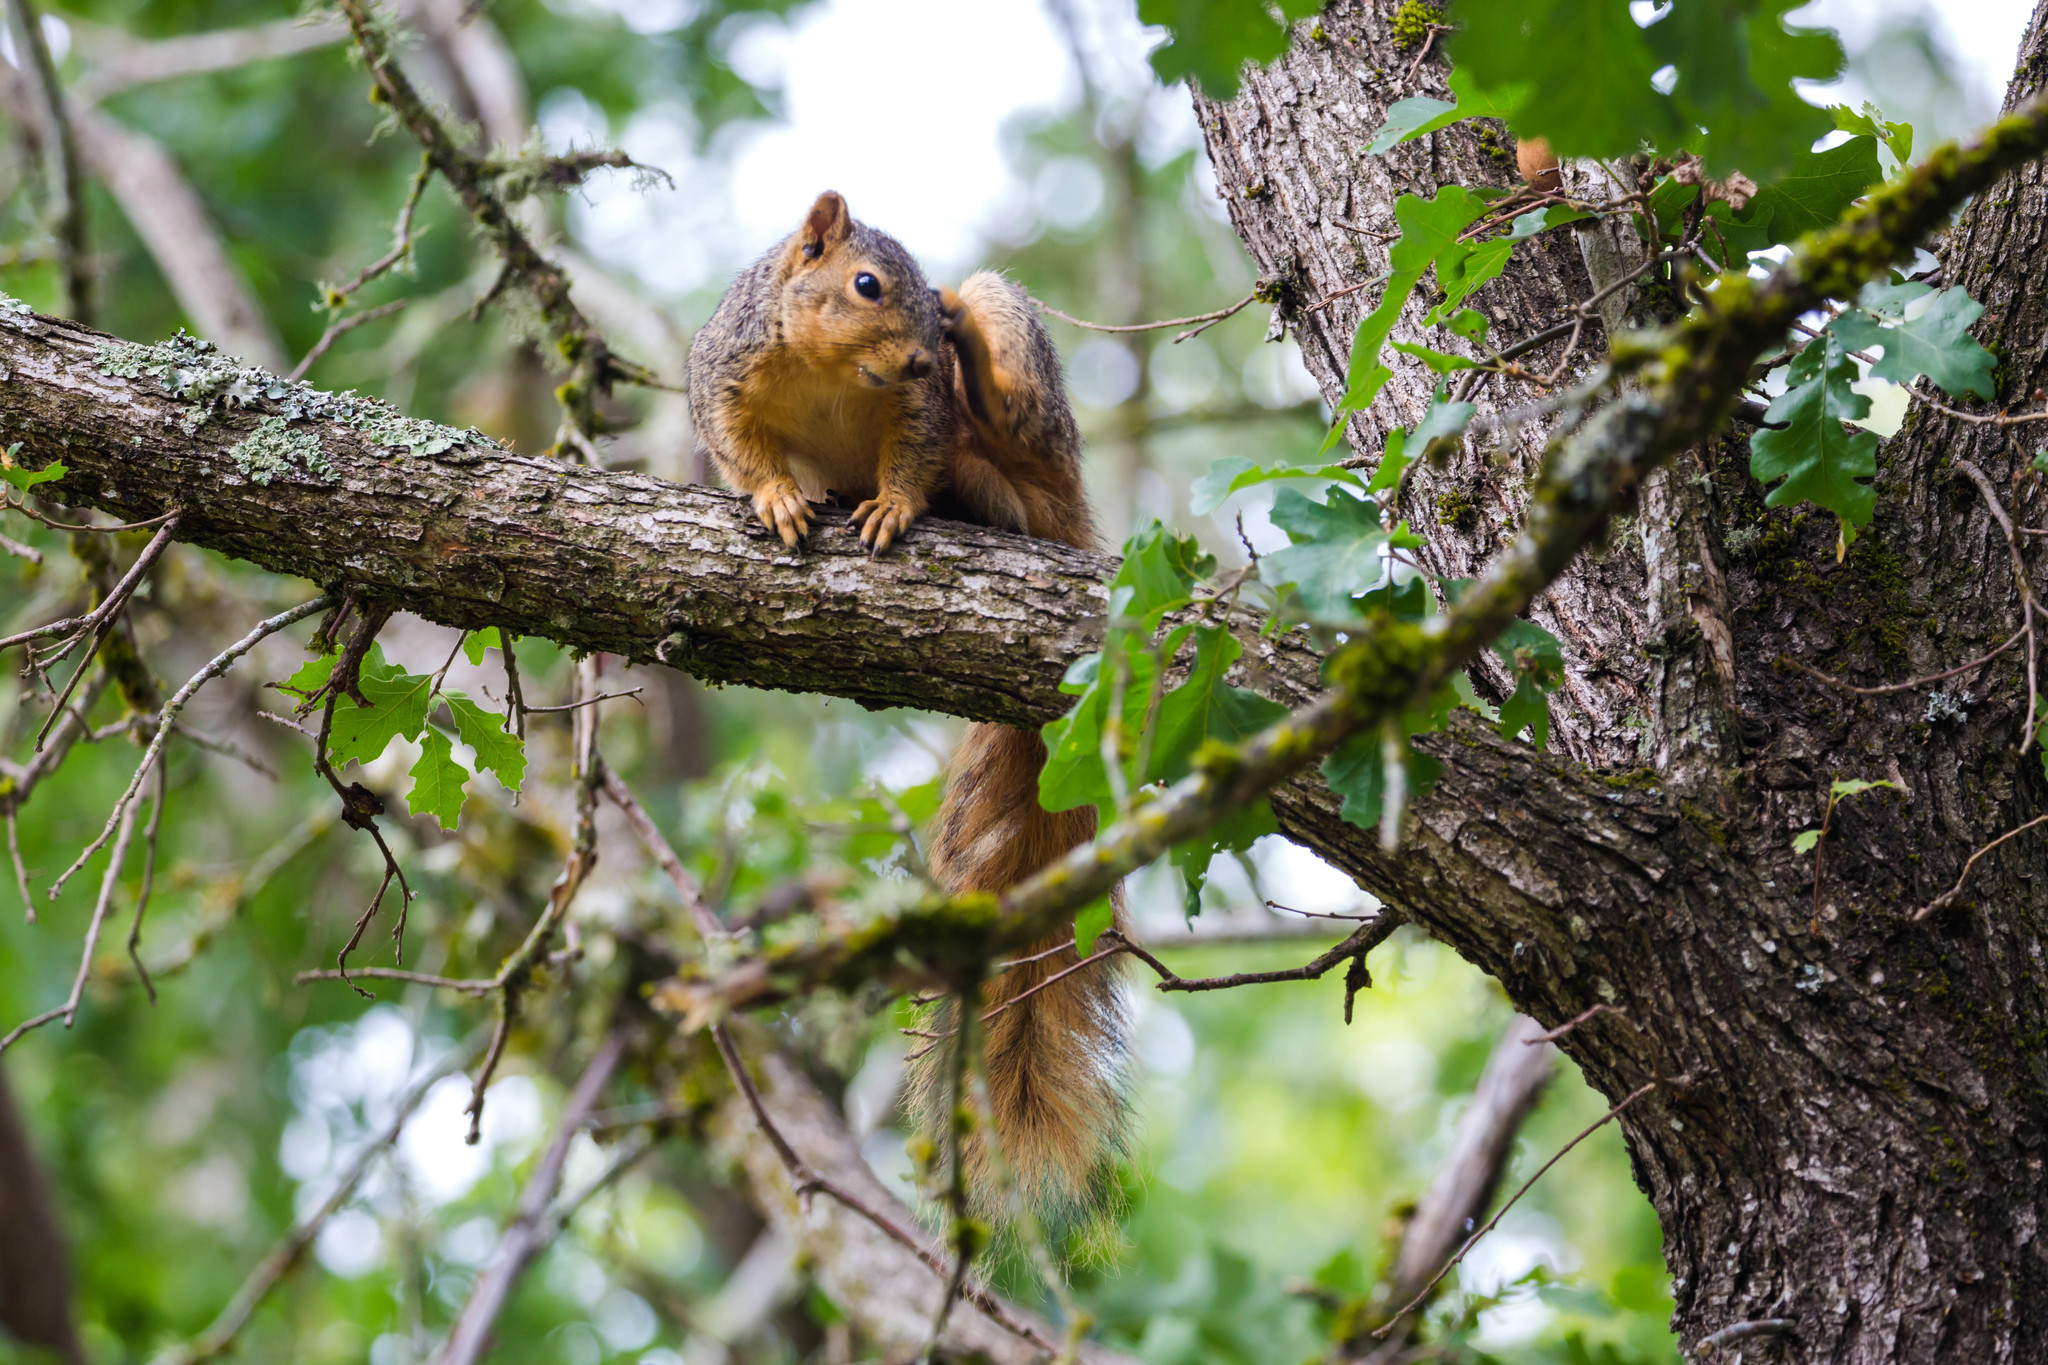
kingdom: Animalia
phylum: Chordata
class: Mammalia
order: Rodentia
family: Sciuridae
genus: Sciurus
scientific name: Sciurus niger
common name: Fox squirrel
